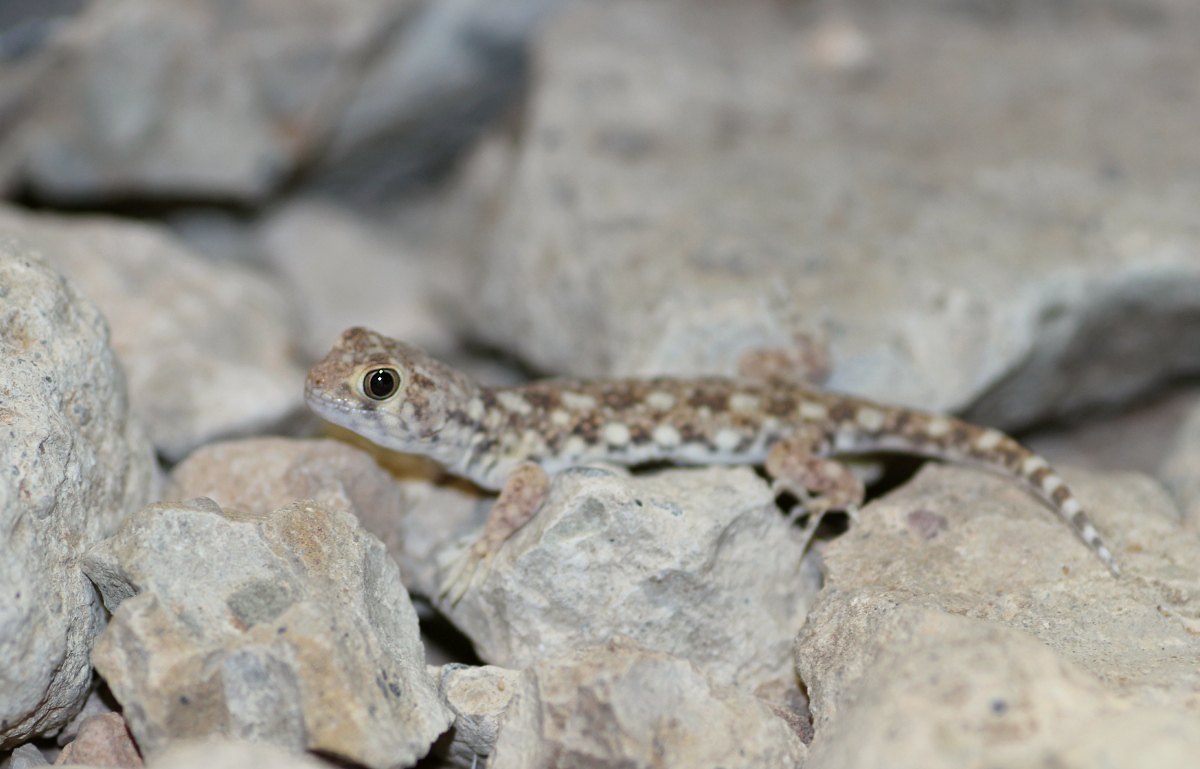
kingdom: Animalia
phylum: Chordata
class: Squamata
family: Gekkonidae
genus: Ptenopus
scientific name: Ptenopus garrulus
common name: Whistling gecko
